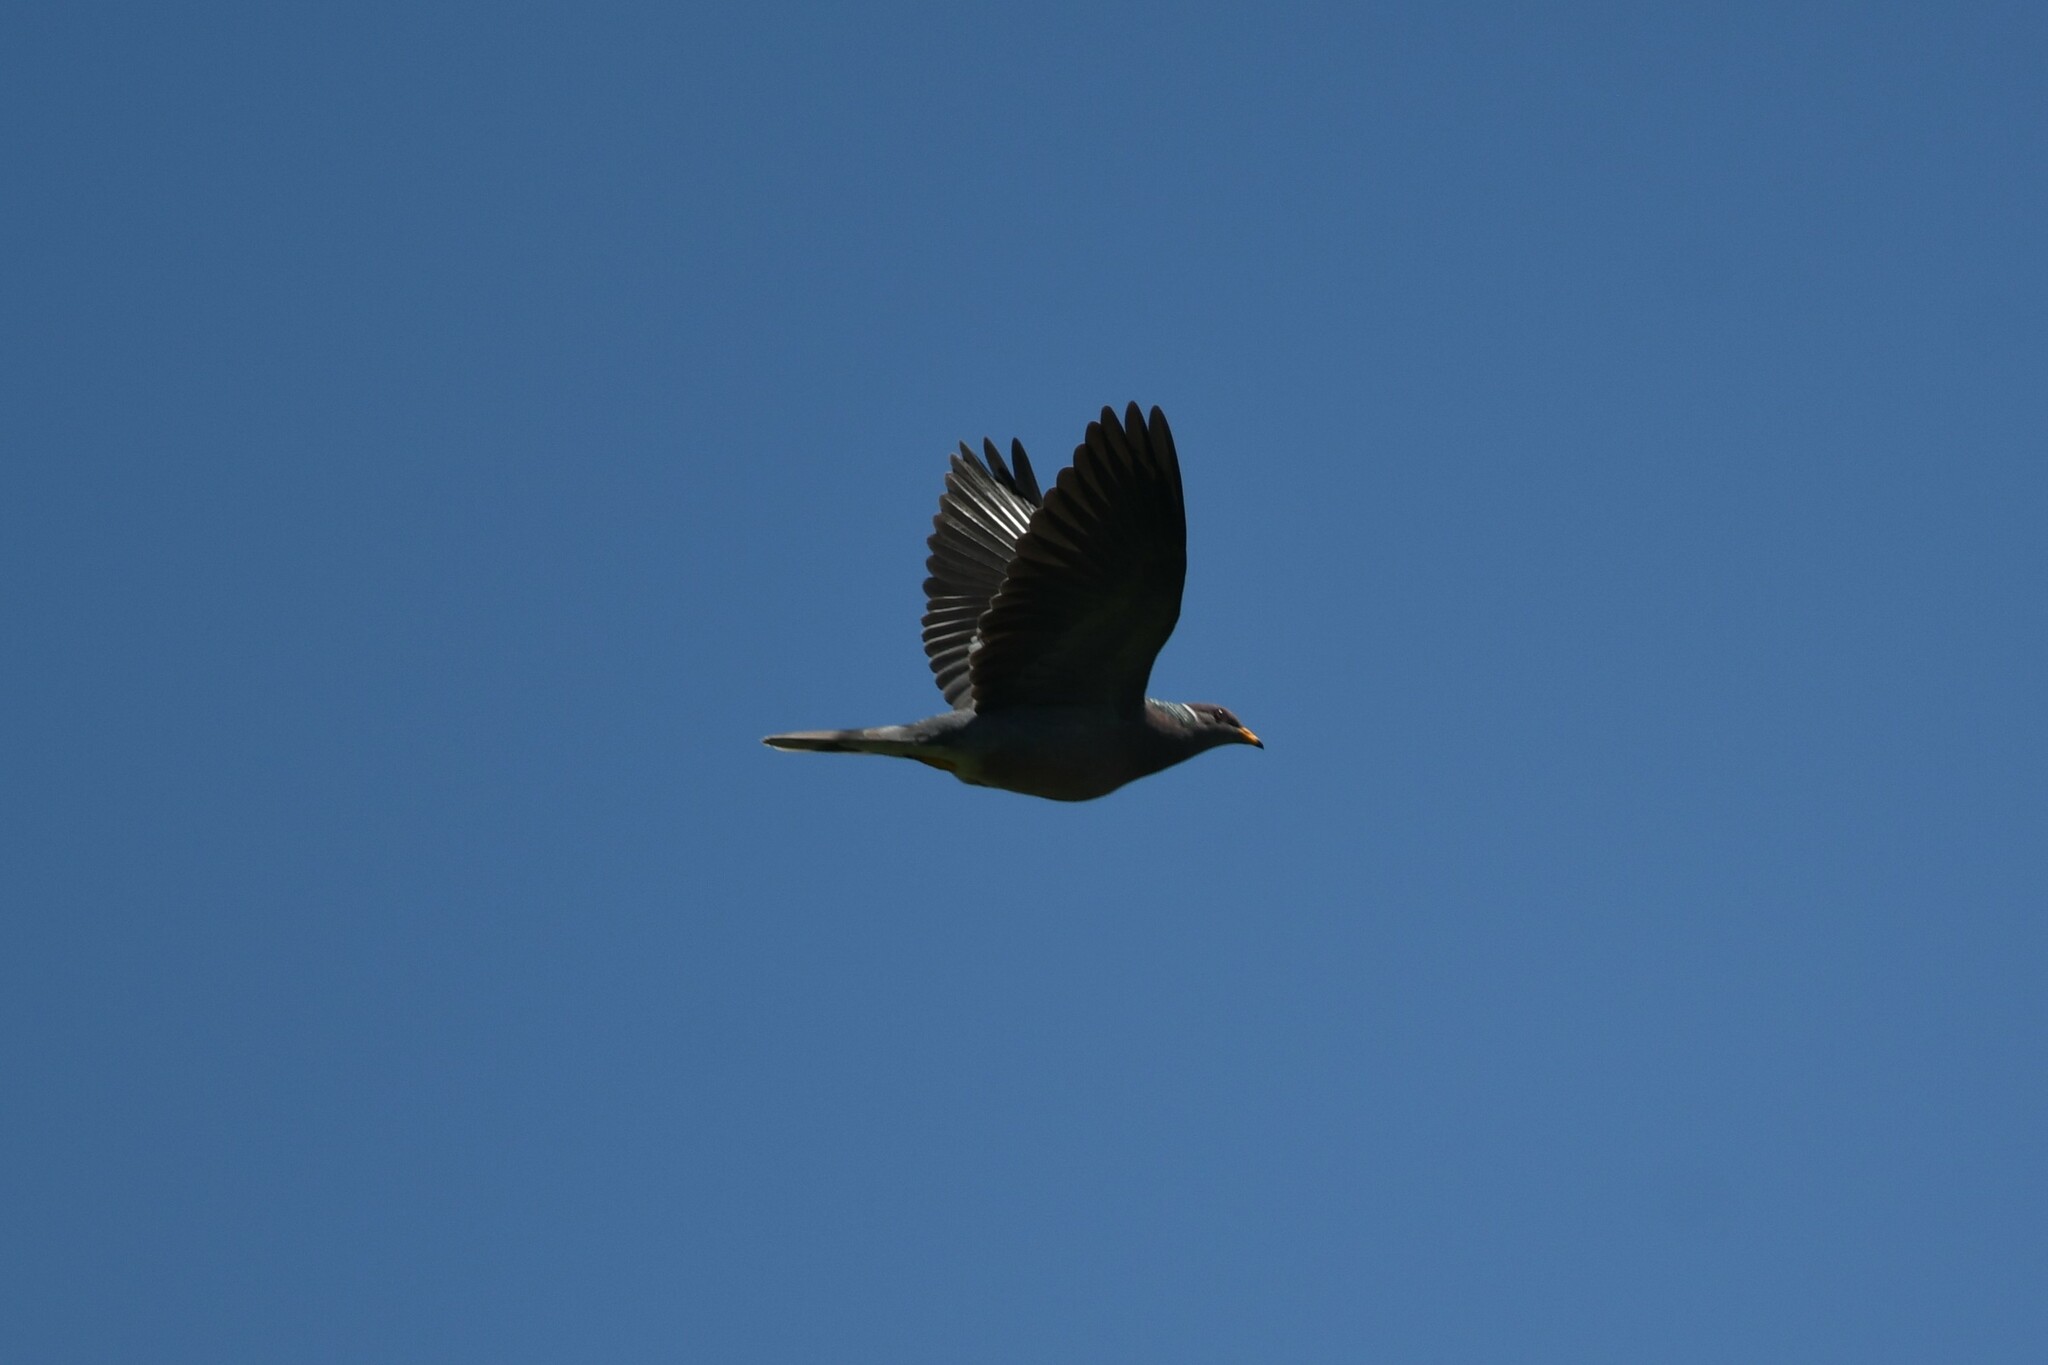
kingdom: Animalia
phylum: Chordata
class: Aves
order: Columbiformes
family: Columbidae
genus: Patagioenas
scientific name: Patagioenas fasciata
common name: Band-tailed pigeon
